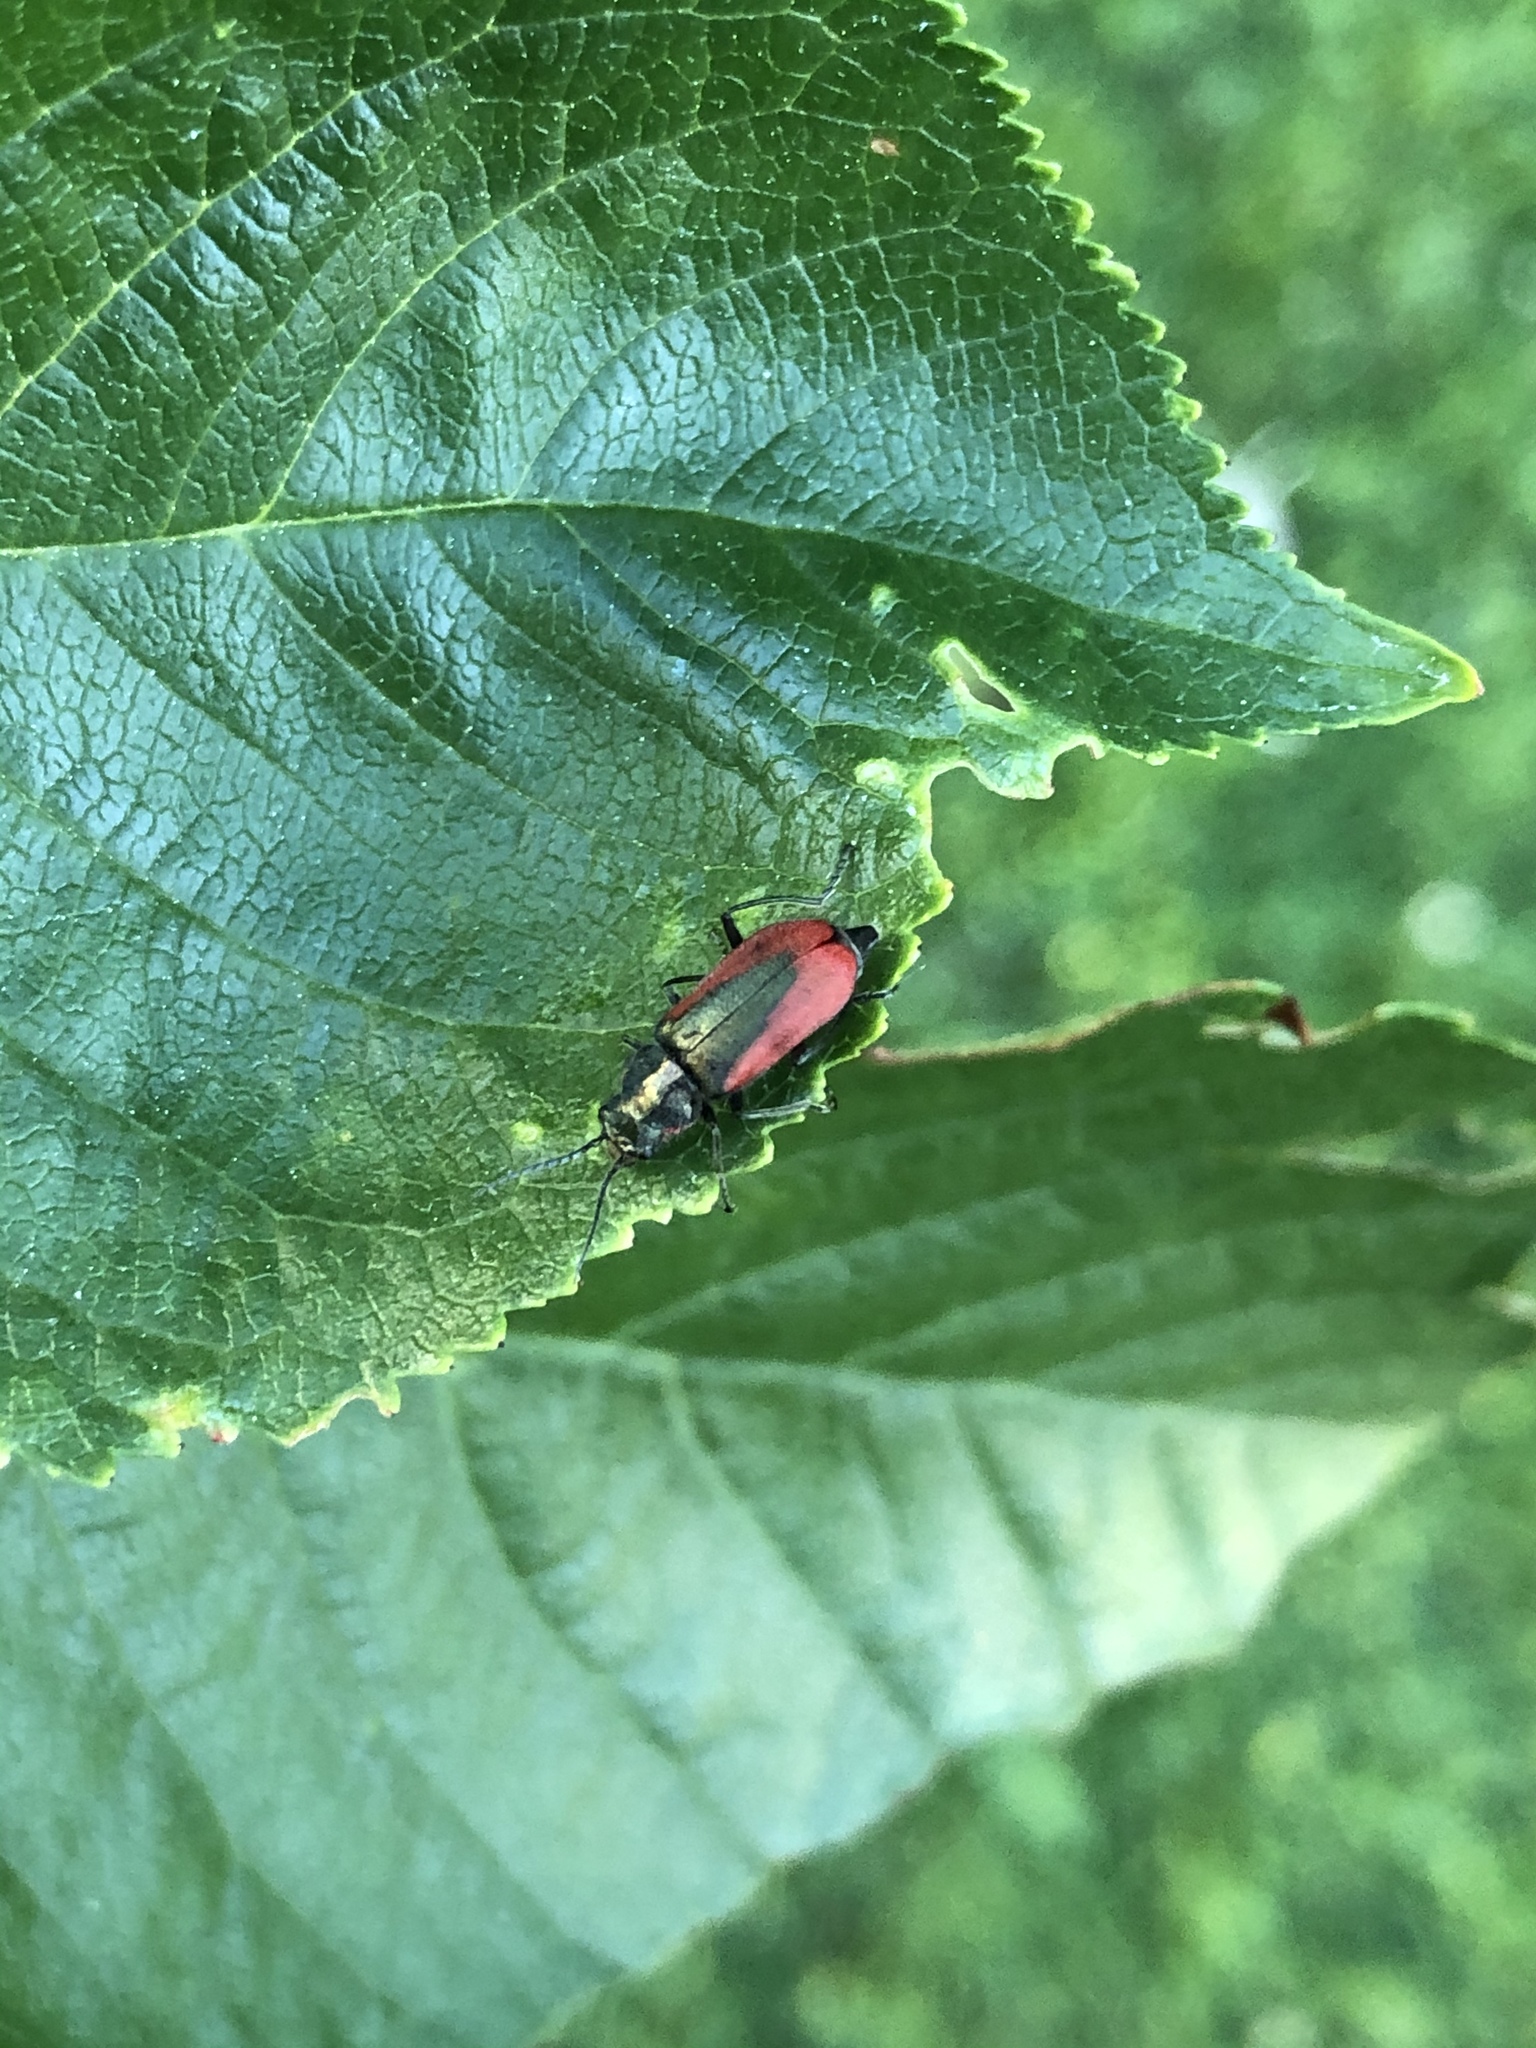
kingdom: Animalia
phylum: Arthropoda
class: Insecta
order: Coleoptera
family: Melyridae
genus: Malachius
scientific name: Malachius aeneus
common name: Scarlet malachite beetle
